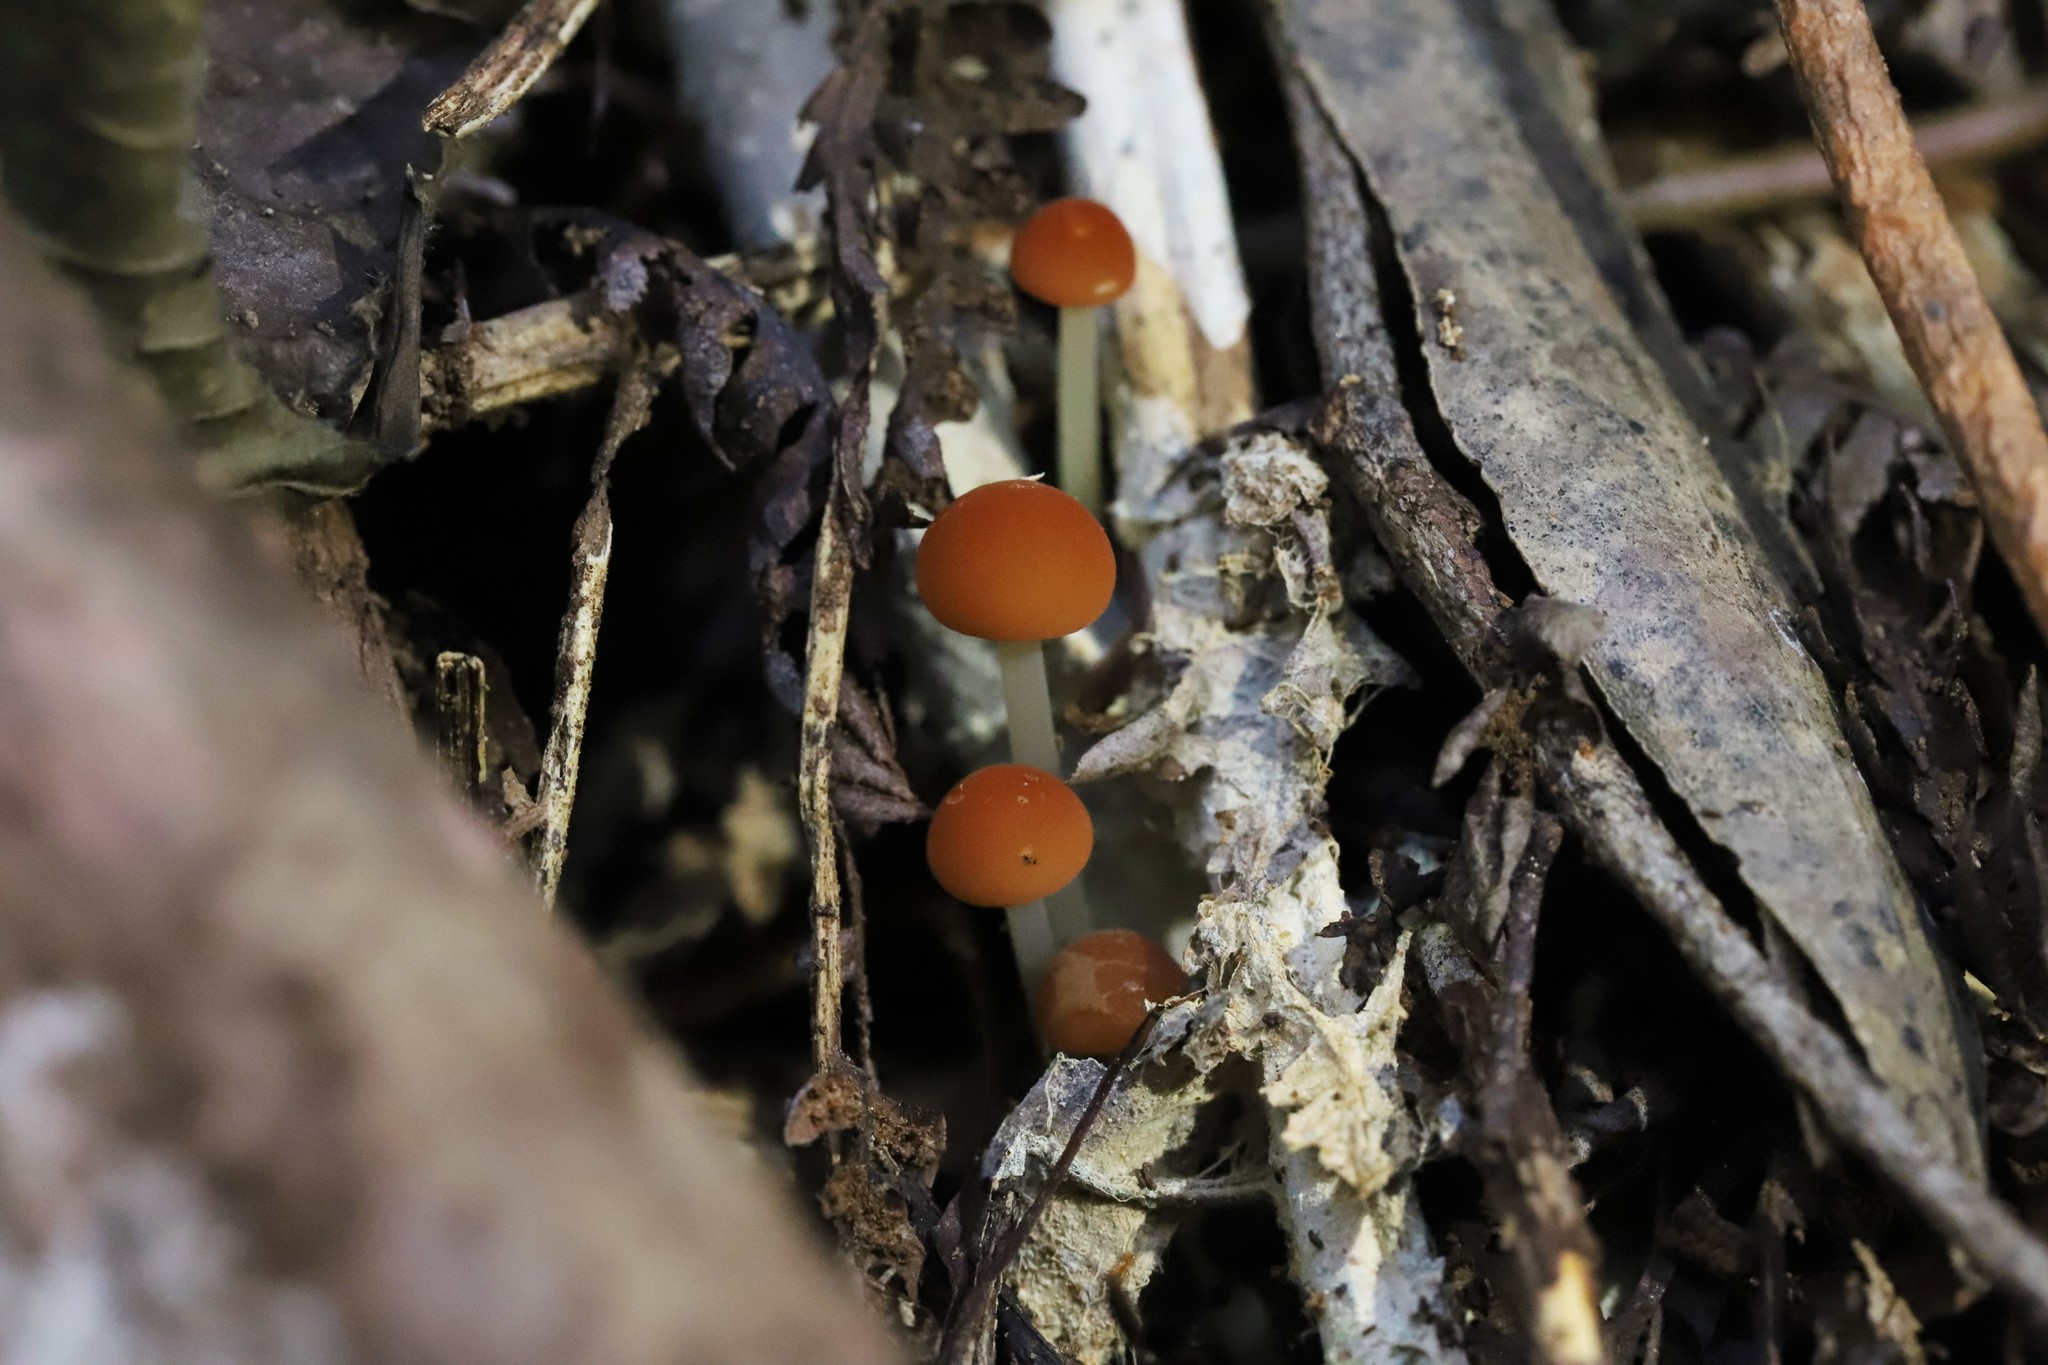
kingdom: Fungi
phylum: Basidiomycota
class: Agaricomycetes
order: Agaricales
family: Marasmiaceae
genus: Marasmius
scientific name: Marasmius elegans
